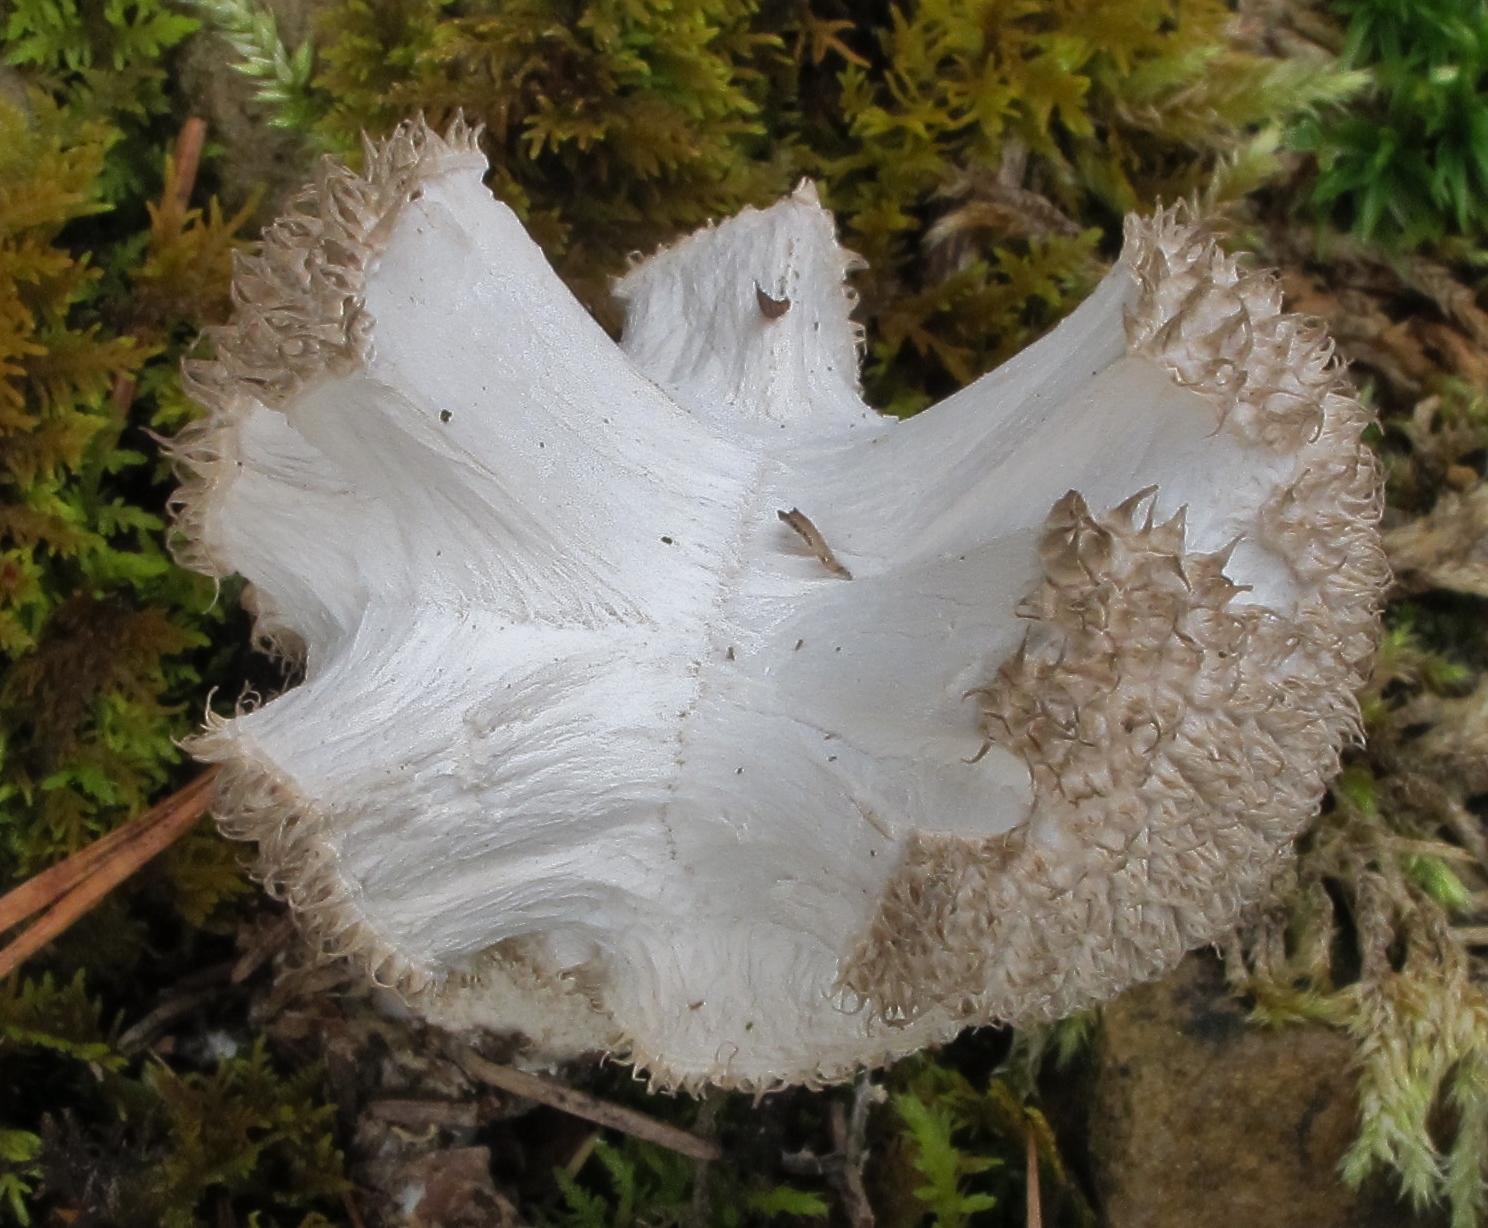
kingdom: Fungi
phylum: Basidiomycota
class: Agaricomycetes
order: Agaricales
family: Lycoperdaceae
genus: Lycoperdon
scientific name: Lycoperdon curtisii
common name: Curtis's puffball
